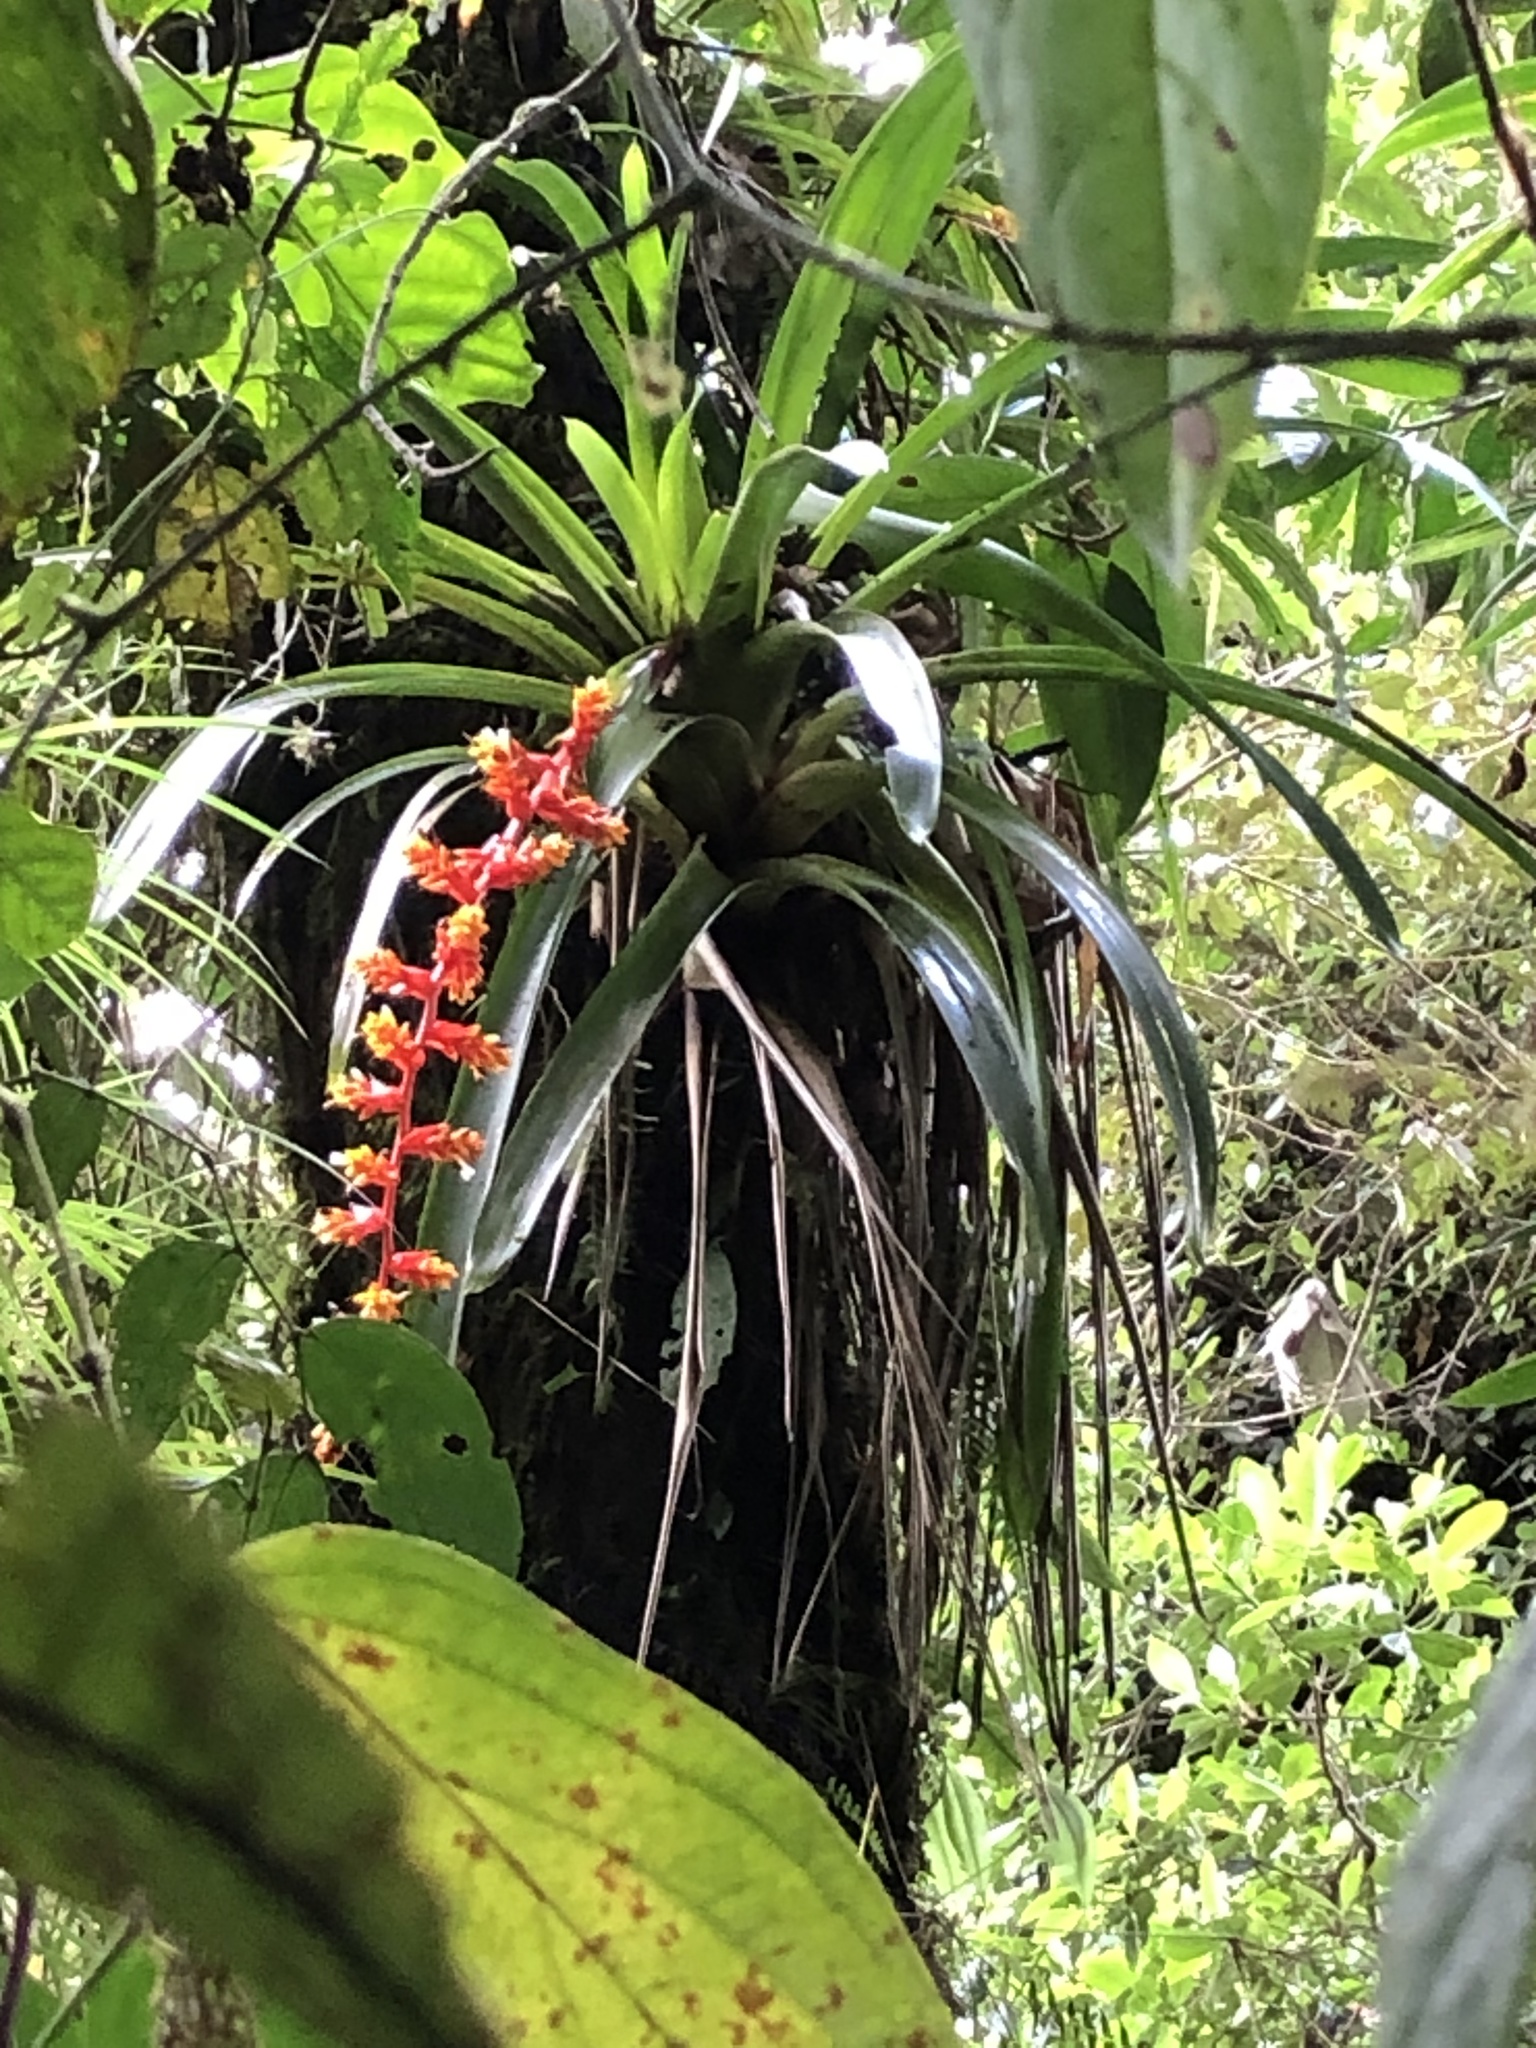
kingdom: Plantae
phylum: Tracheophyta
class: Liliopsida
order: Poales
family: Bromeliaceae
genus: Guzmania
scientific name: Guzmania multiflora
